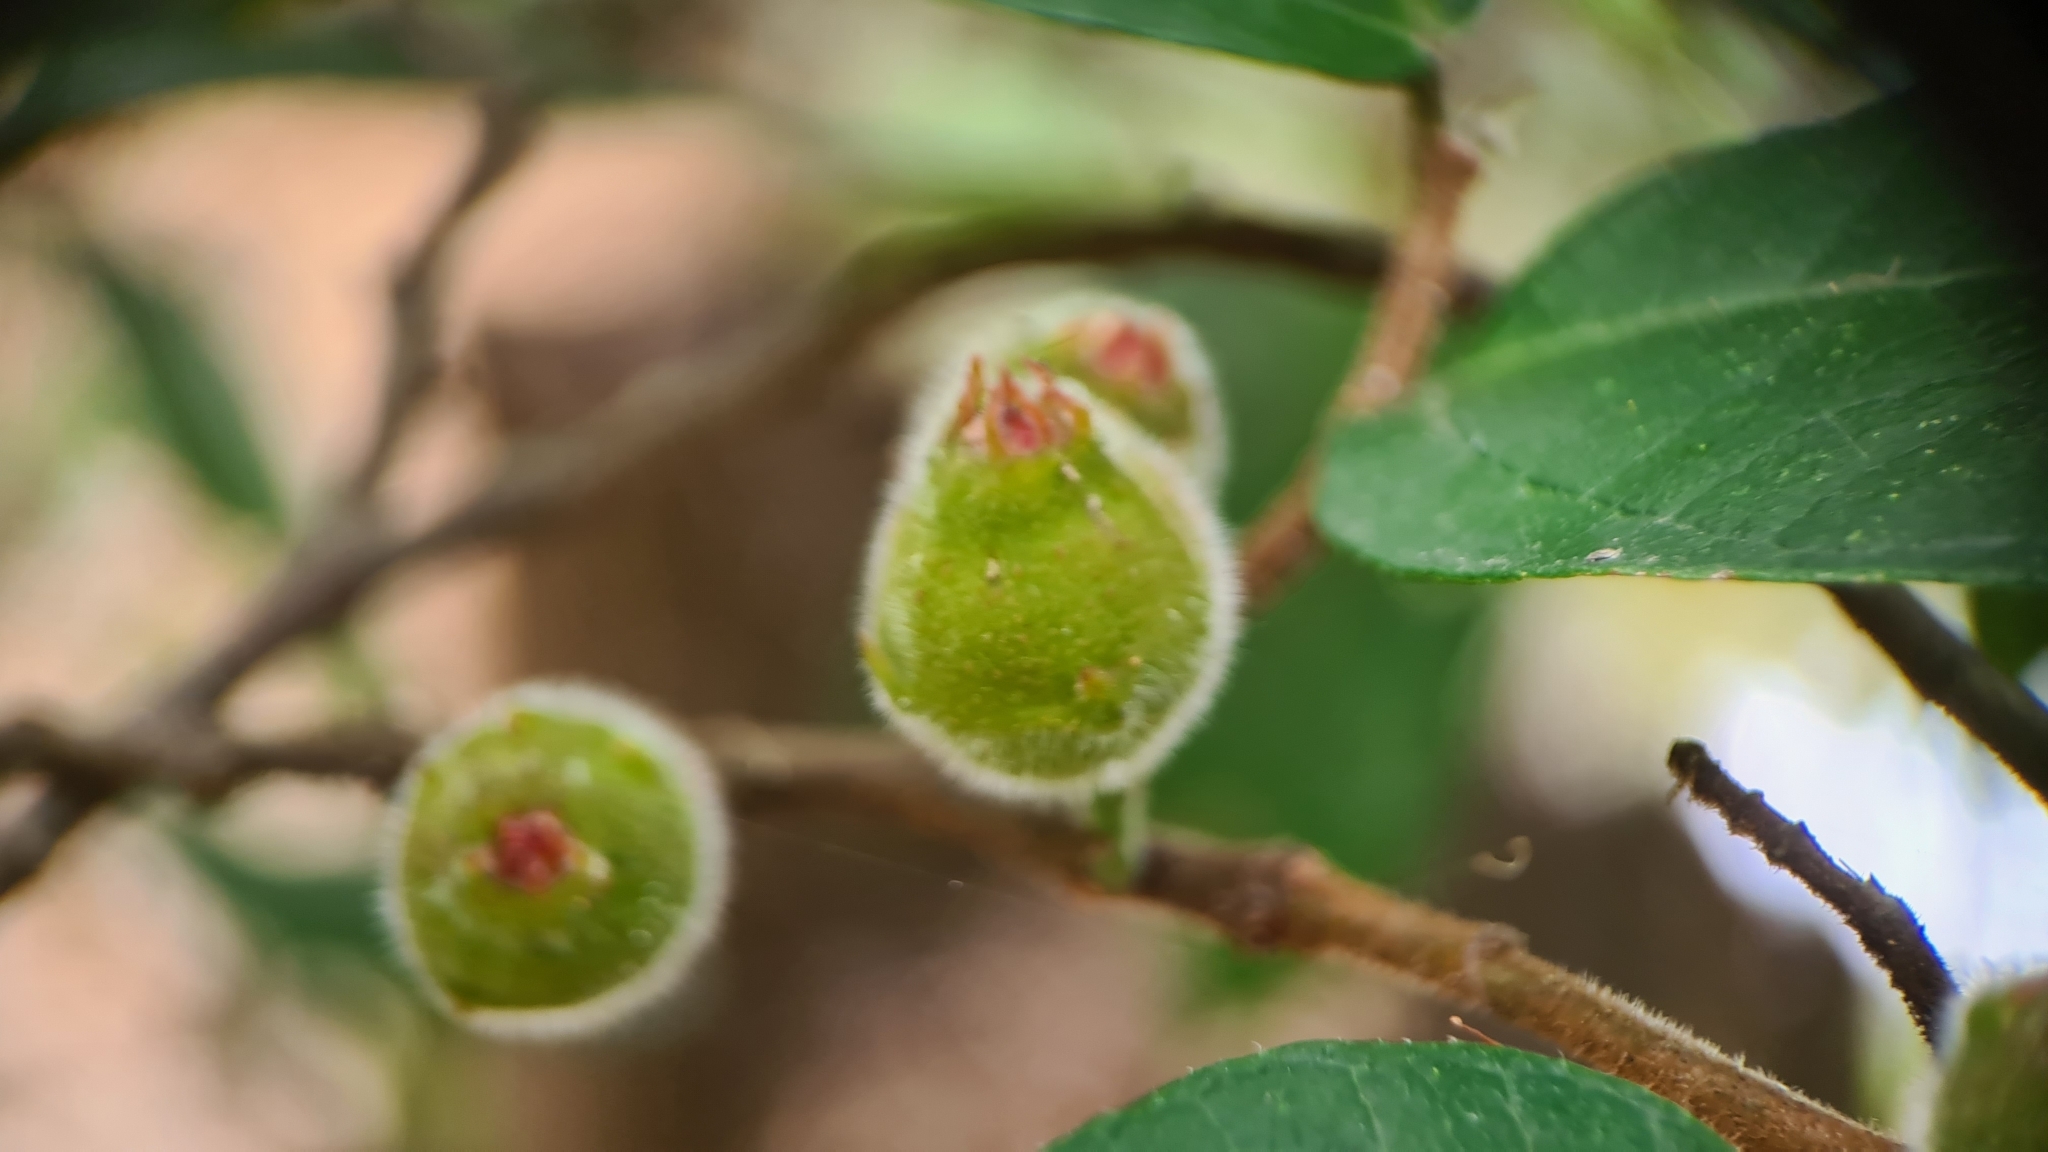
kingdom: Plantae
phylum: Tracheophyta
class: Magnoliopsida
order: Rosales
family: Moraceae
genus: Ficus
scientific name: Ficus coronata
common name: Creek sandpaper fig
